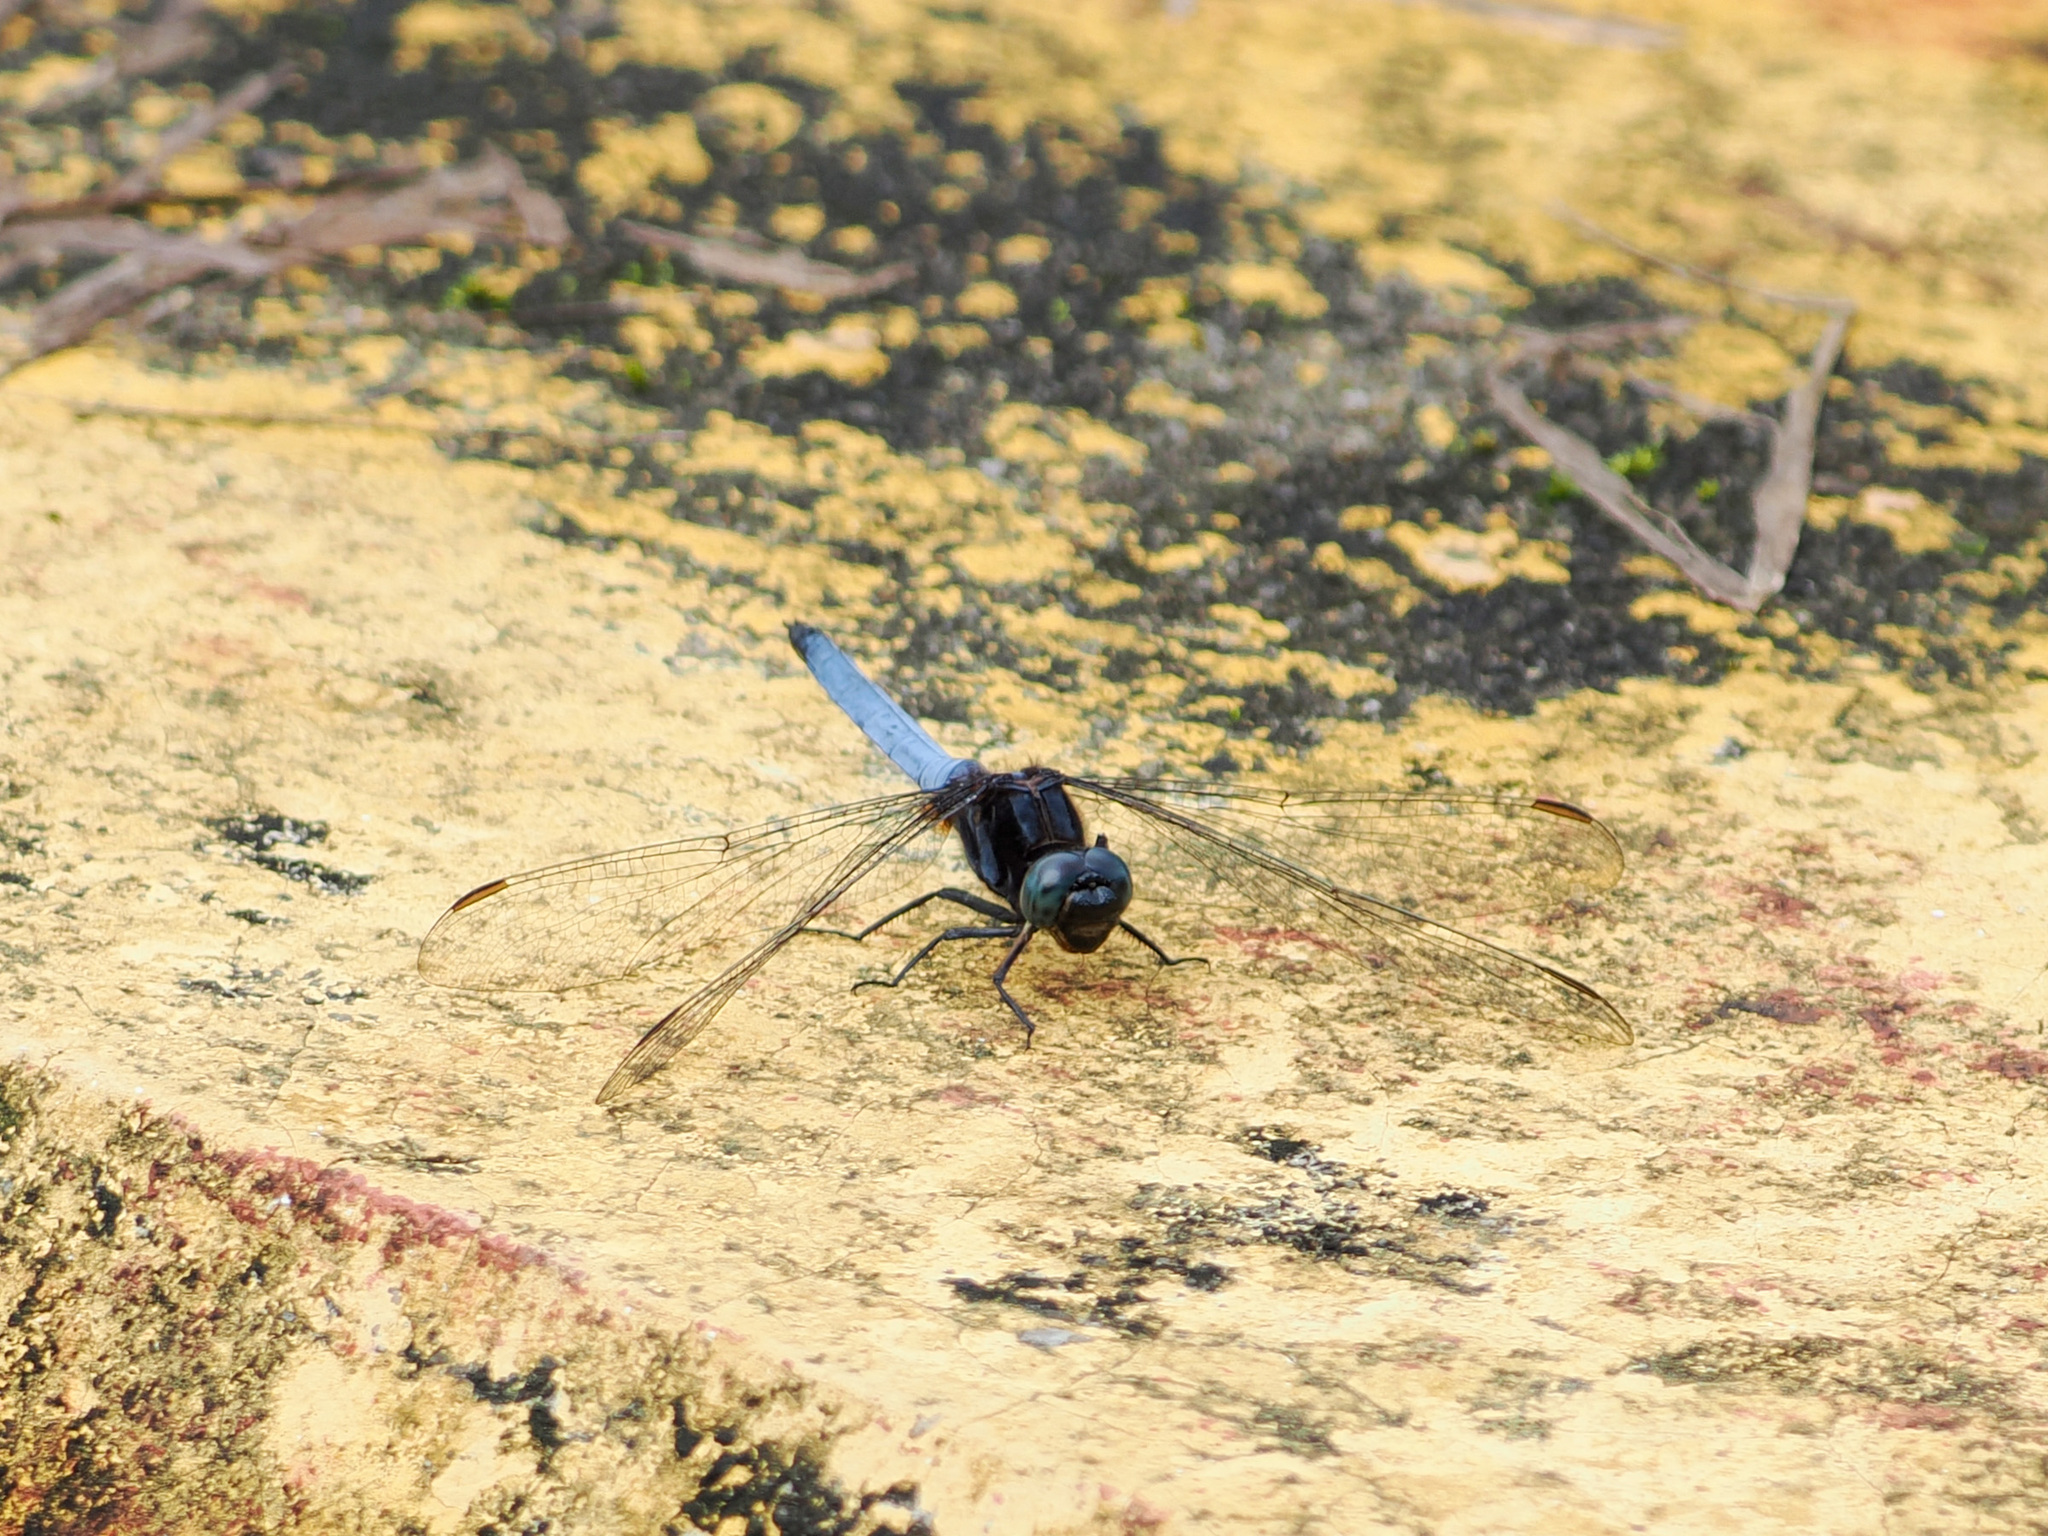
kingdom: Animalia
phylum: Arthropoda
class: Insecta
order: Odonata
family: Libellulidae
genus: Orthetrum
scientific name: Orthetrum glaucum
